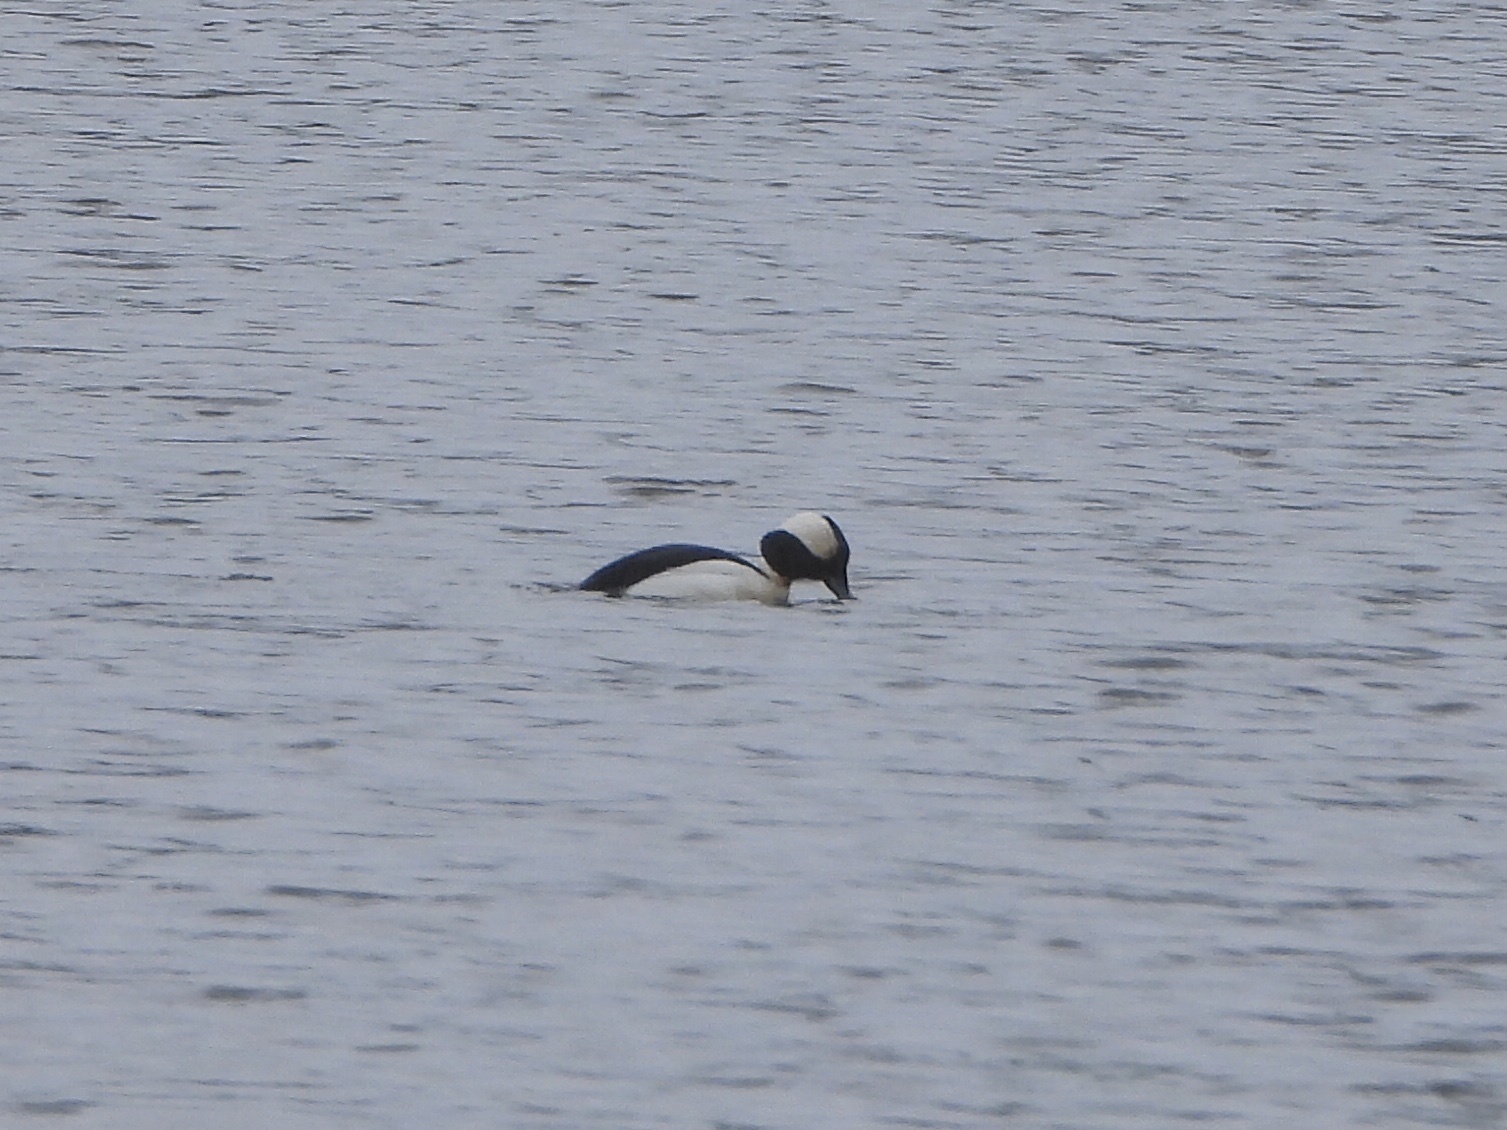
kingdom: Animalia
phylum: Chordata
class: Aves
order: Anseriformes
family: Anatidae
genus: Bucephala
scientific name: Bucephala albeola
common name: Bufflehead
